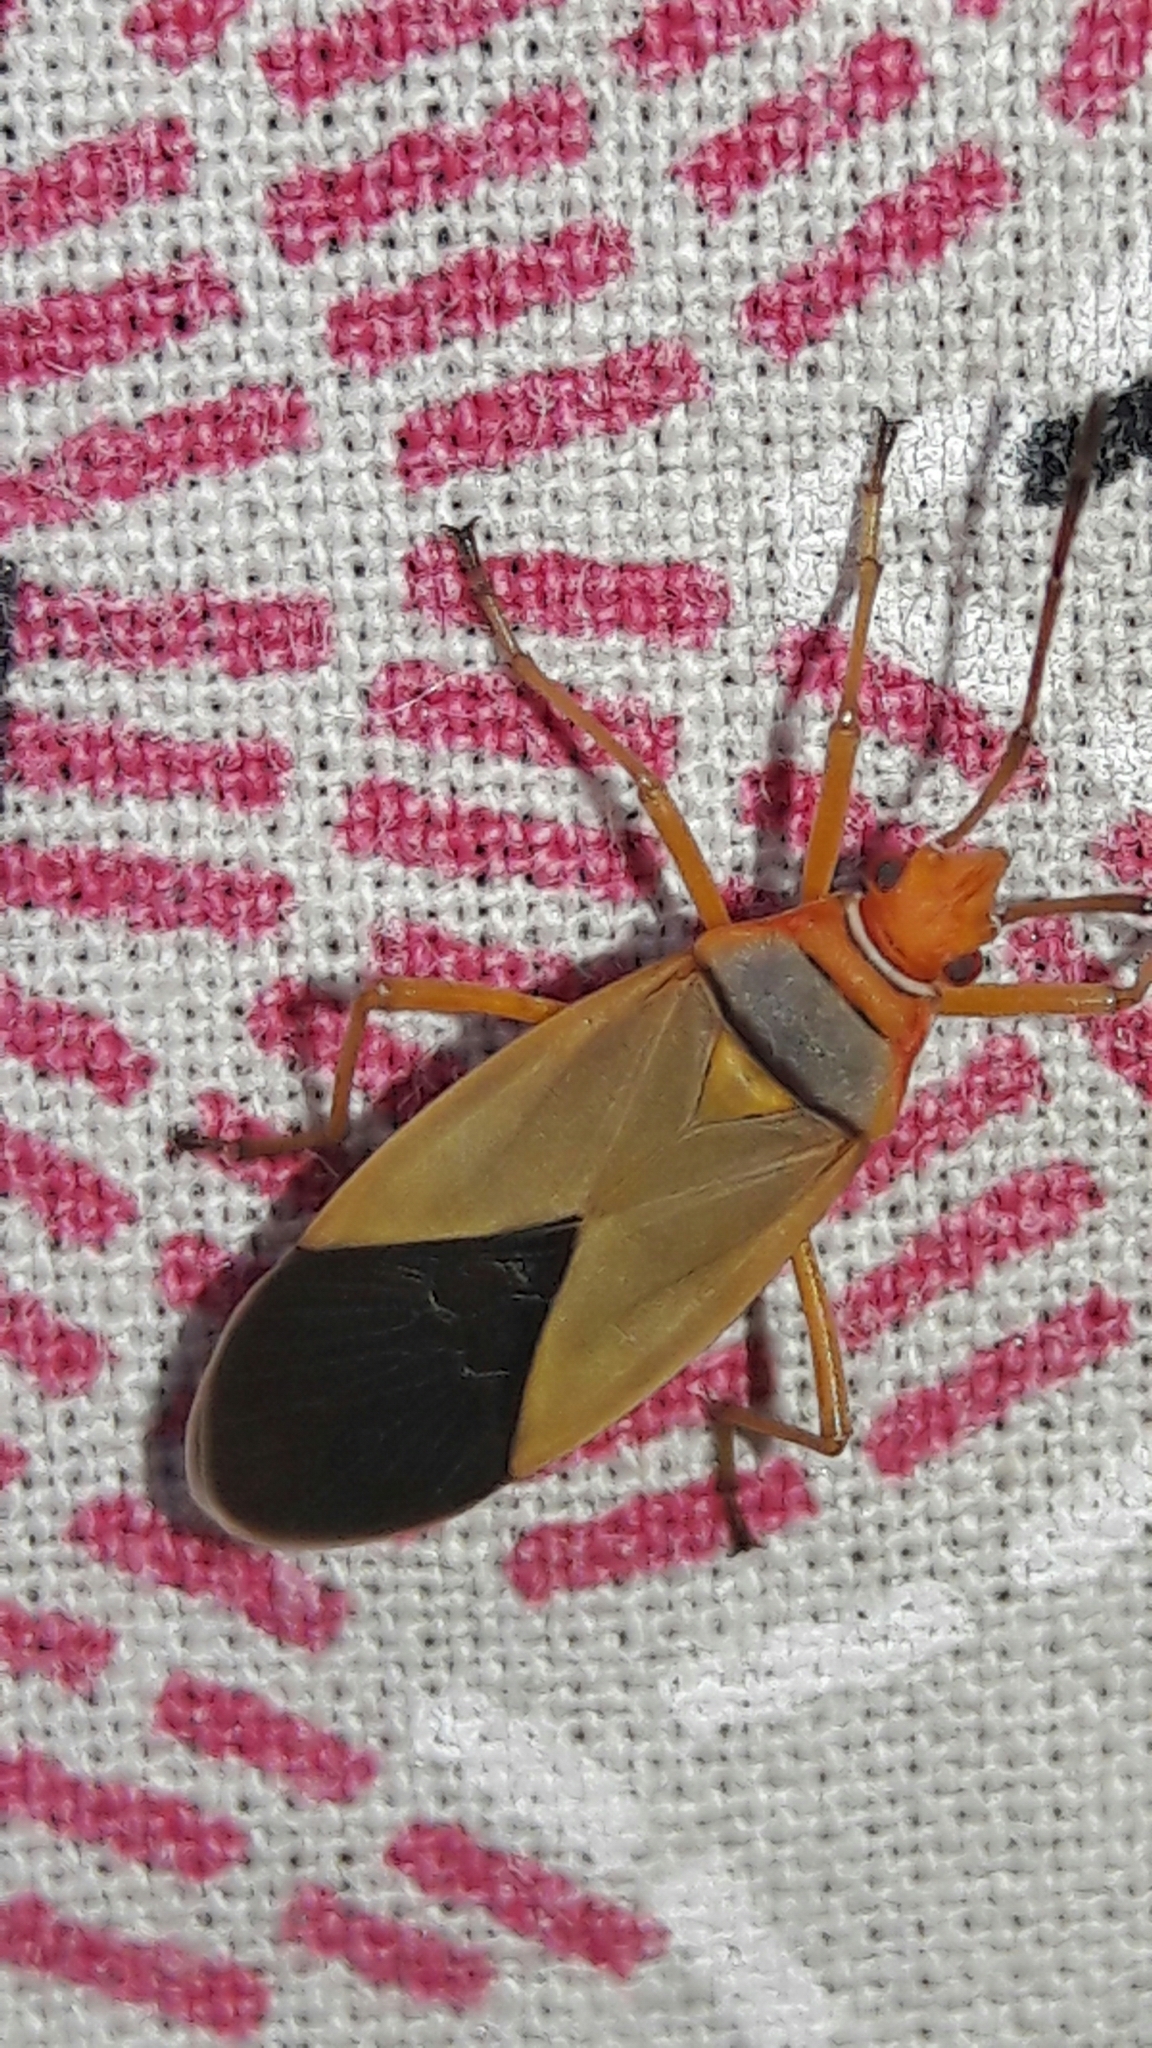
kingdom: Animalia
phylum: Arthropoda
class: Insecta
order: Hemiptera
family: Pyrrhocoridae
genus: Dysdercus
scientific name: Dysdercus ruficollis
